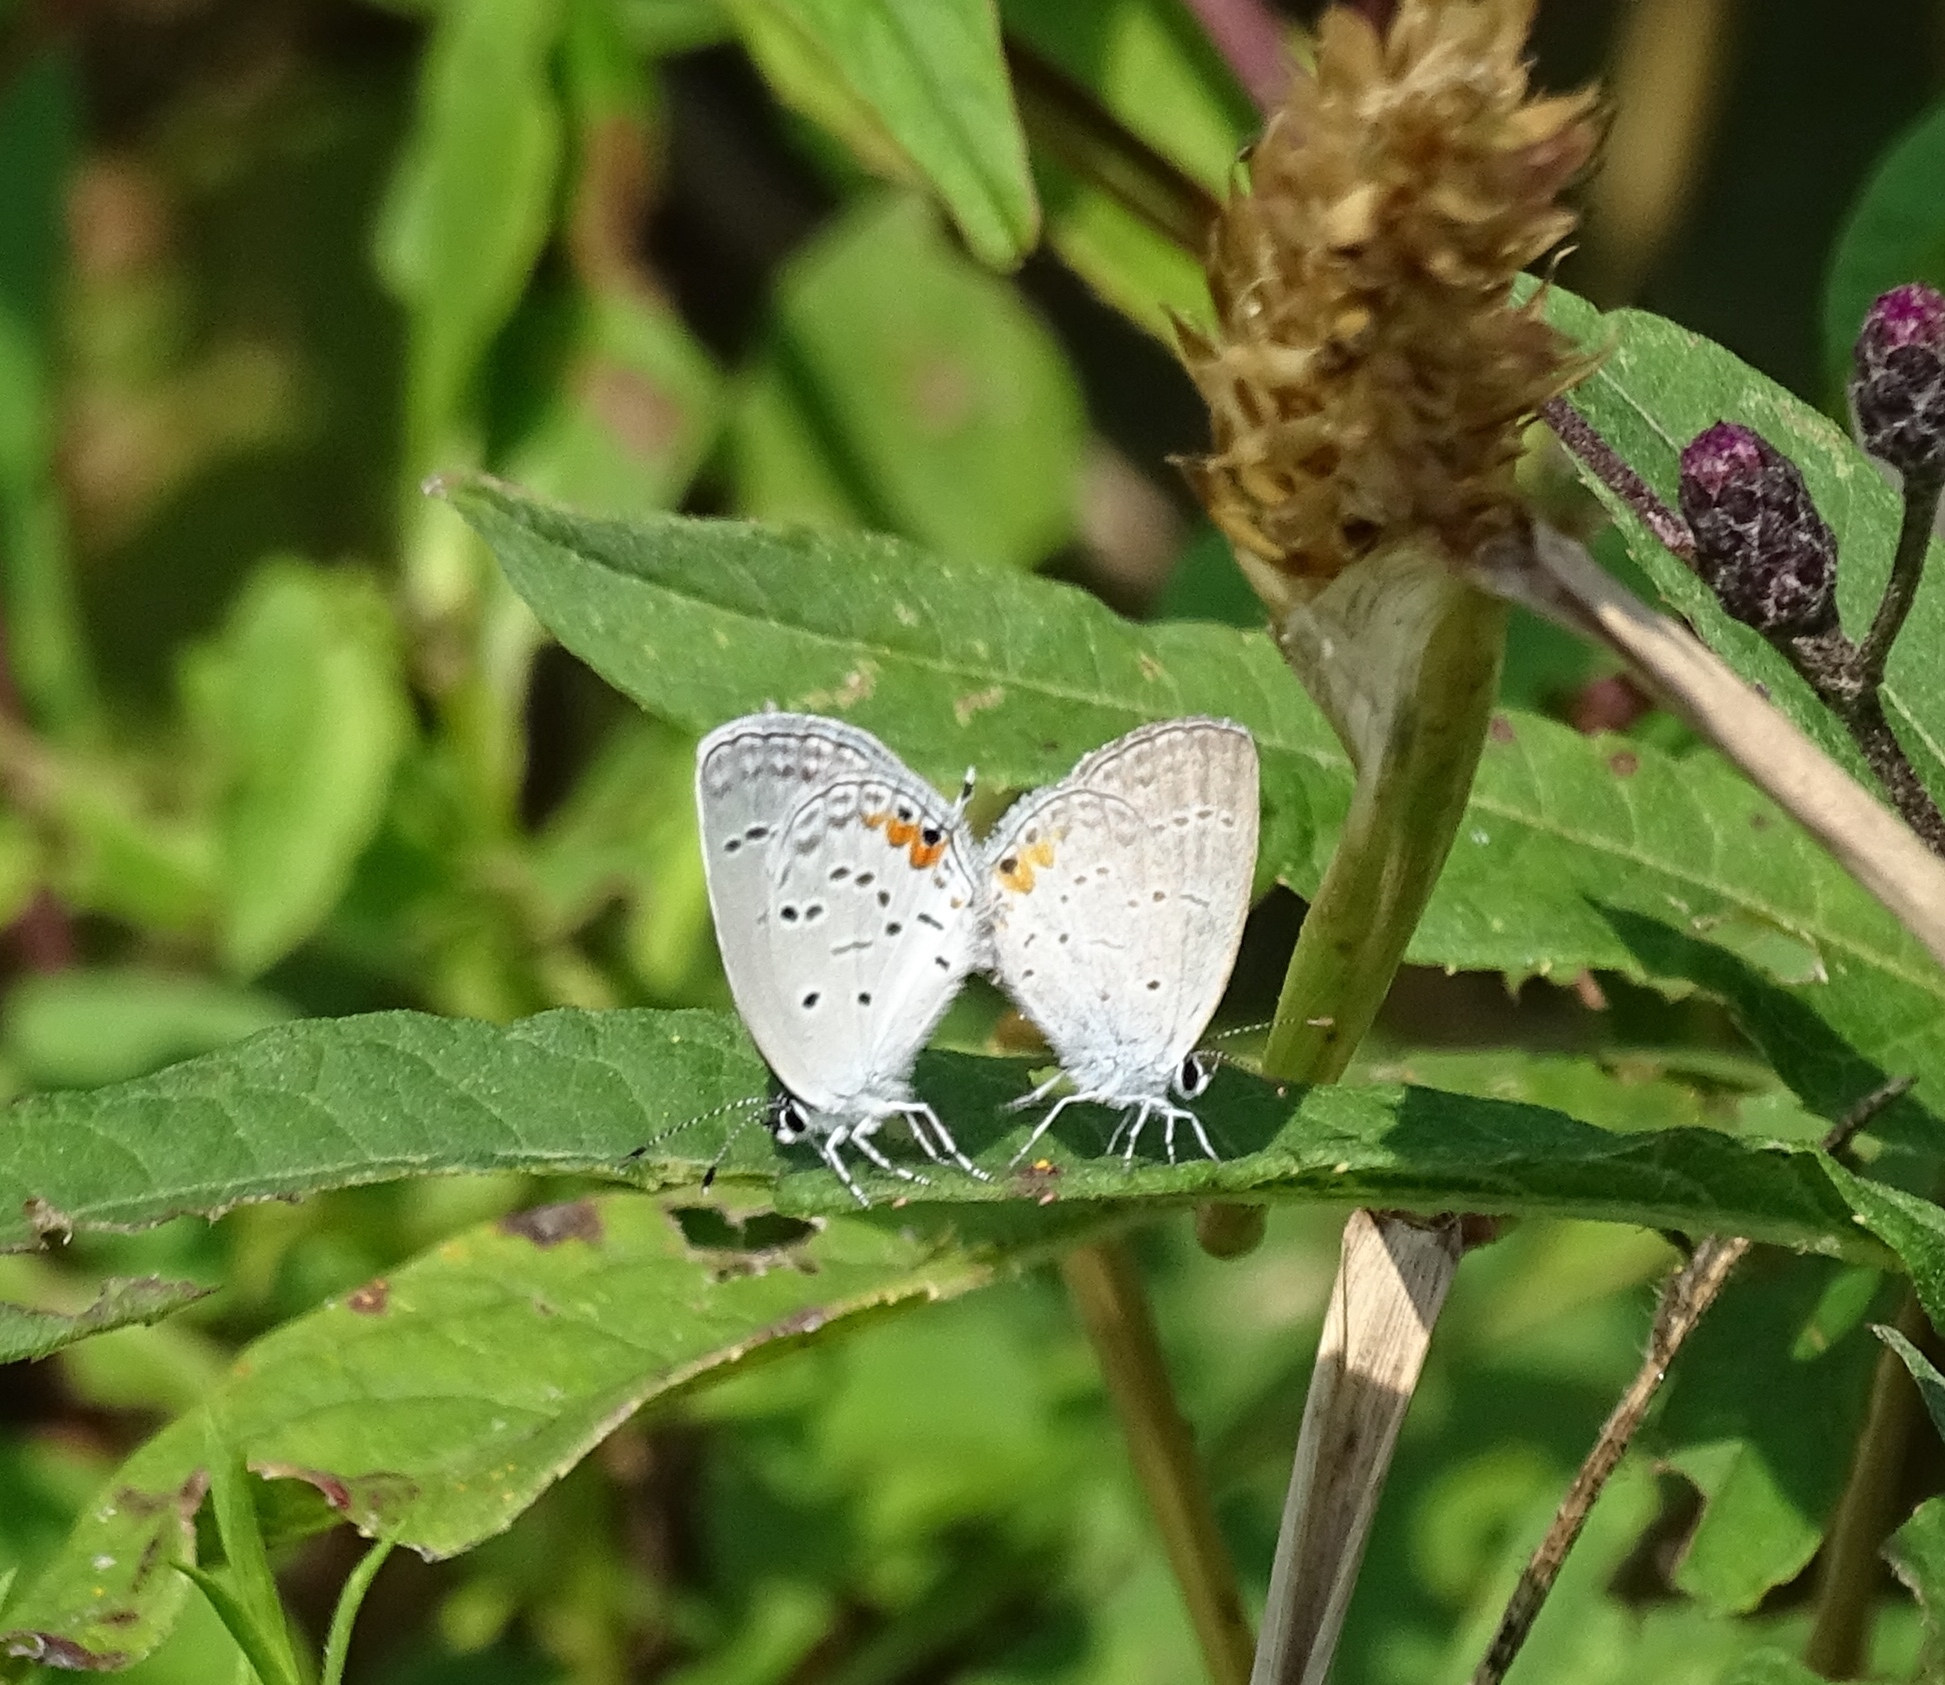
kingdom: Animalia
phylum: Arthropoda
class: Insecta
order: Lepidoptera
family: Lycaenidae
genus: Elkalyce
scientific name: Elkalyce comyntas
